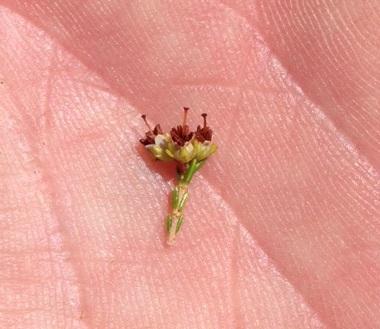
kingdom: Plantae
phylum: Tracheophyta
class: Magnoliopsida
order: Ericales
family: Ericaceae
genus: Erica
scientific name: Erica opulenta
